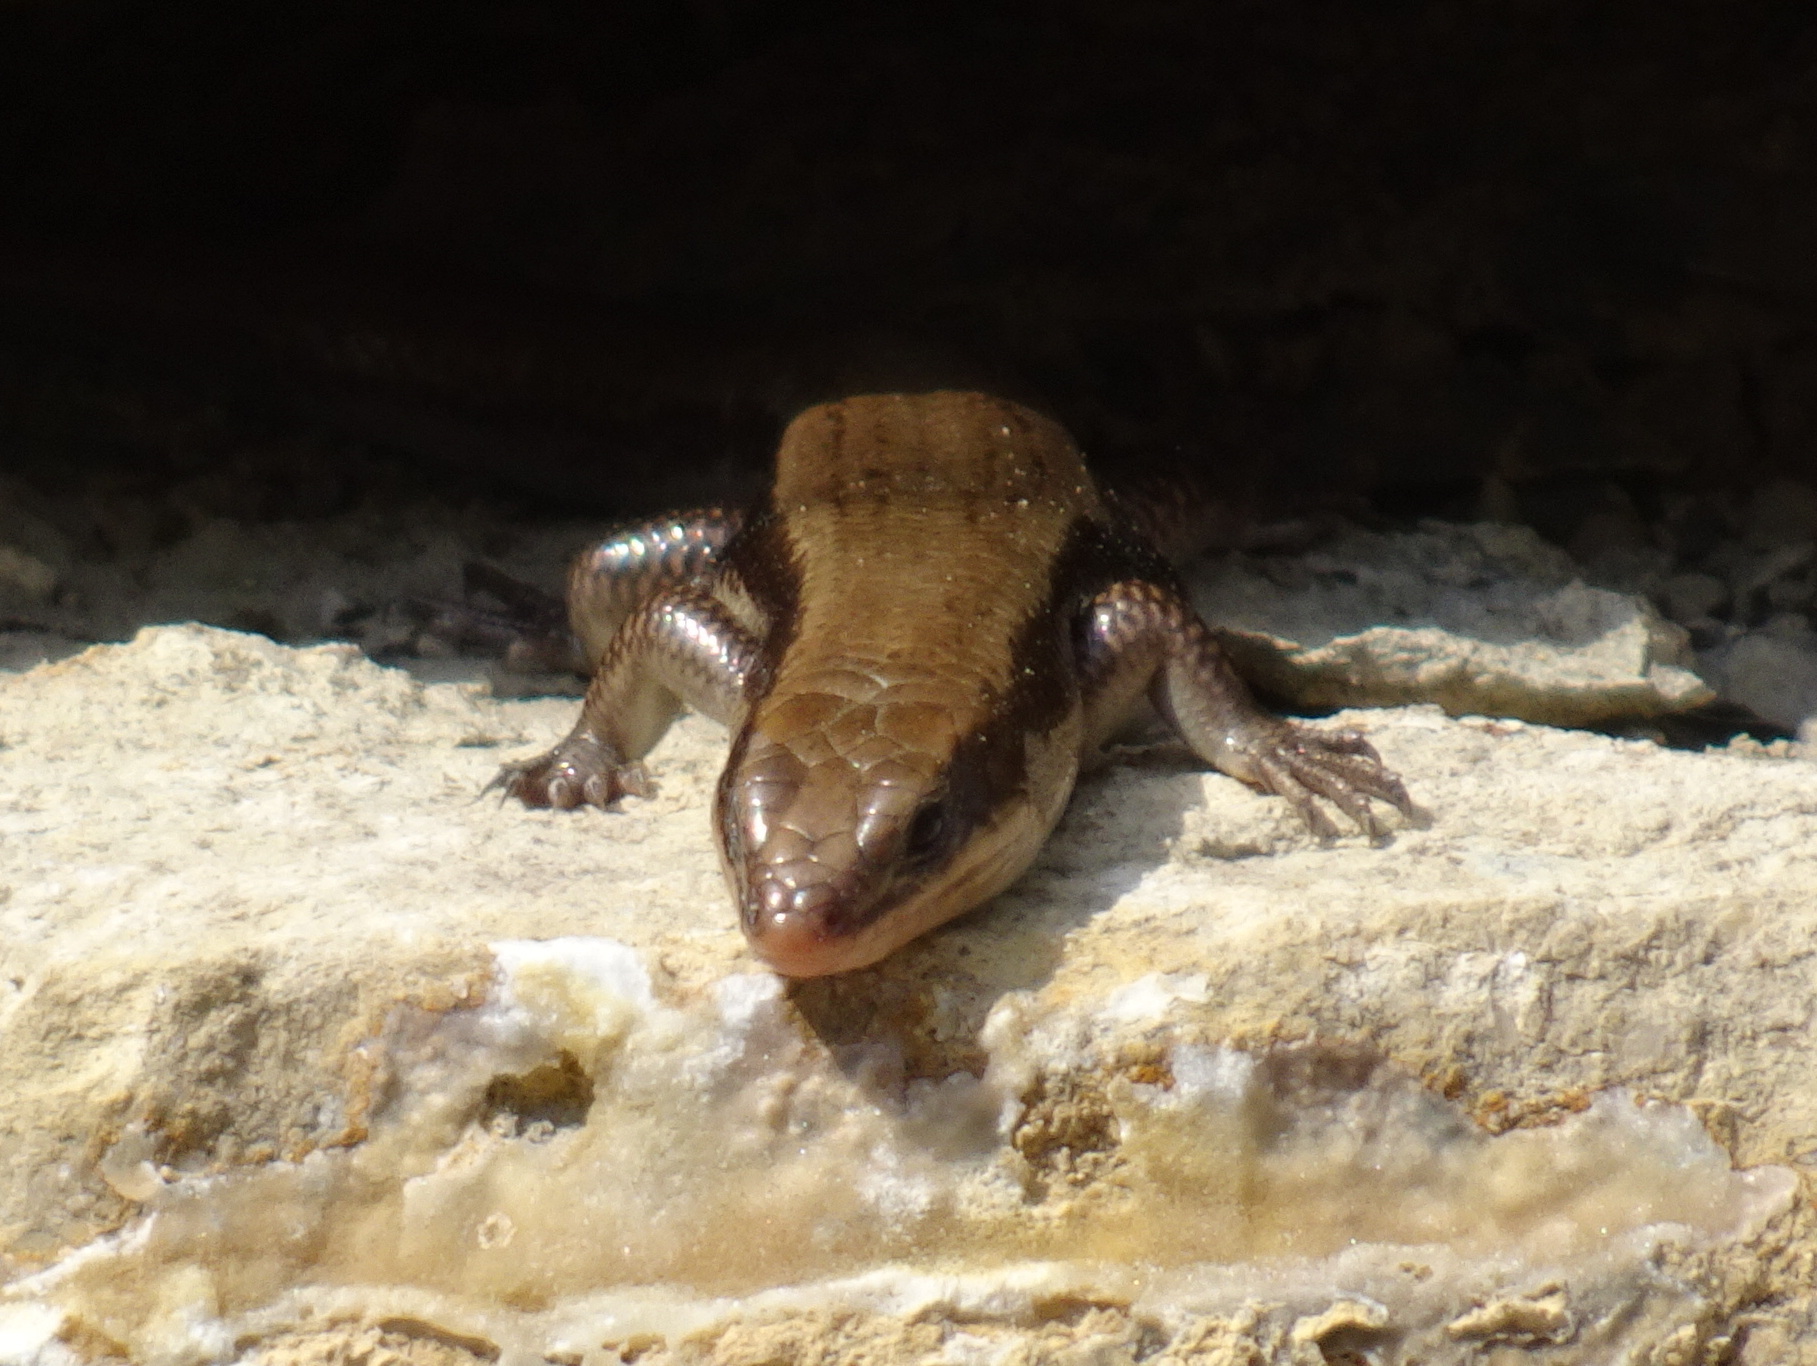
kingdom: Animalia
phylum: Chordata
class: Squamata
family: Scincidae
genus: Plestiodon
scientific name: Plestiodon fasciatus
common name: Five-lined skink
